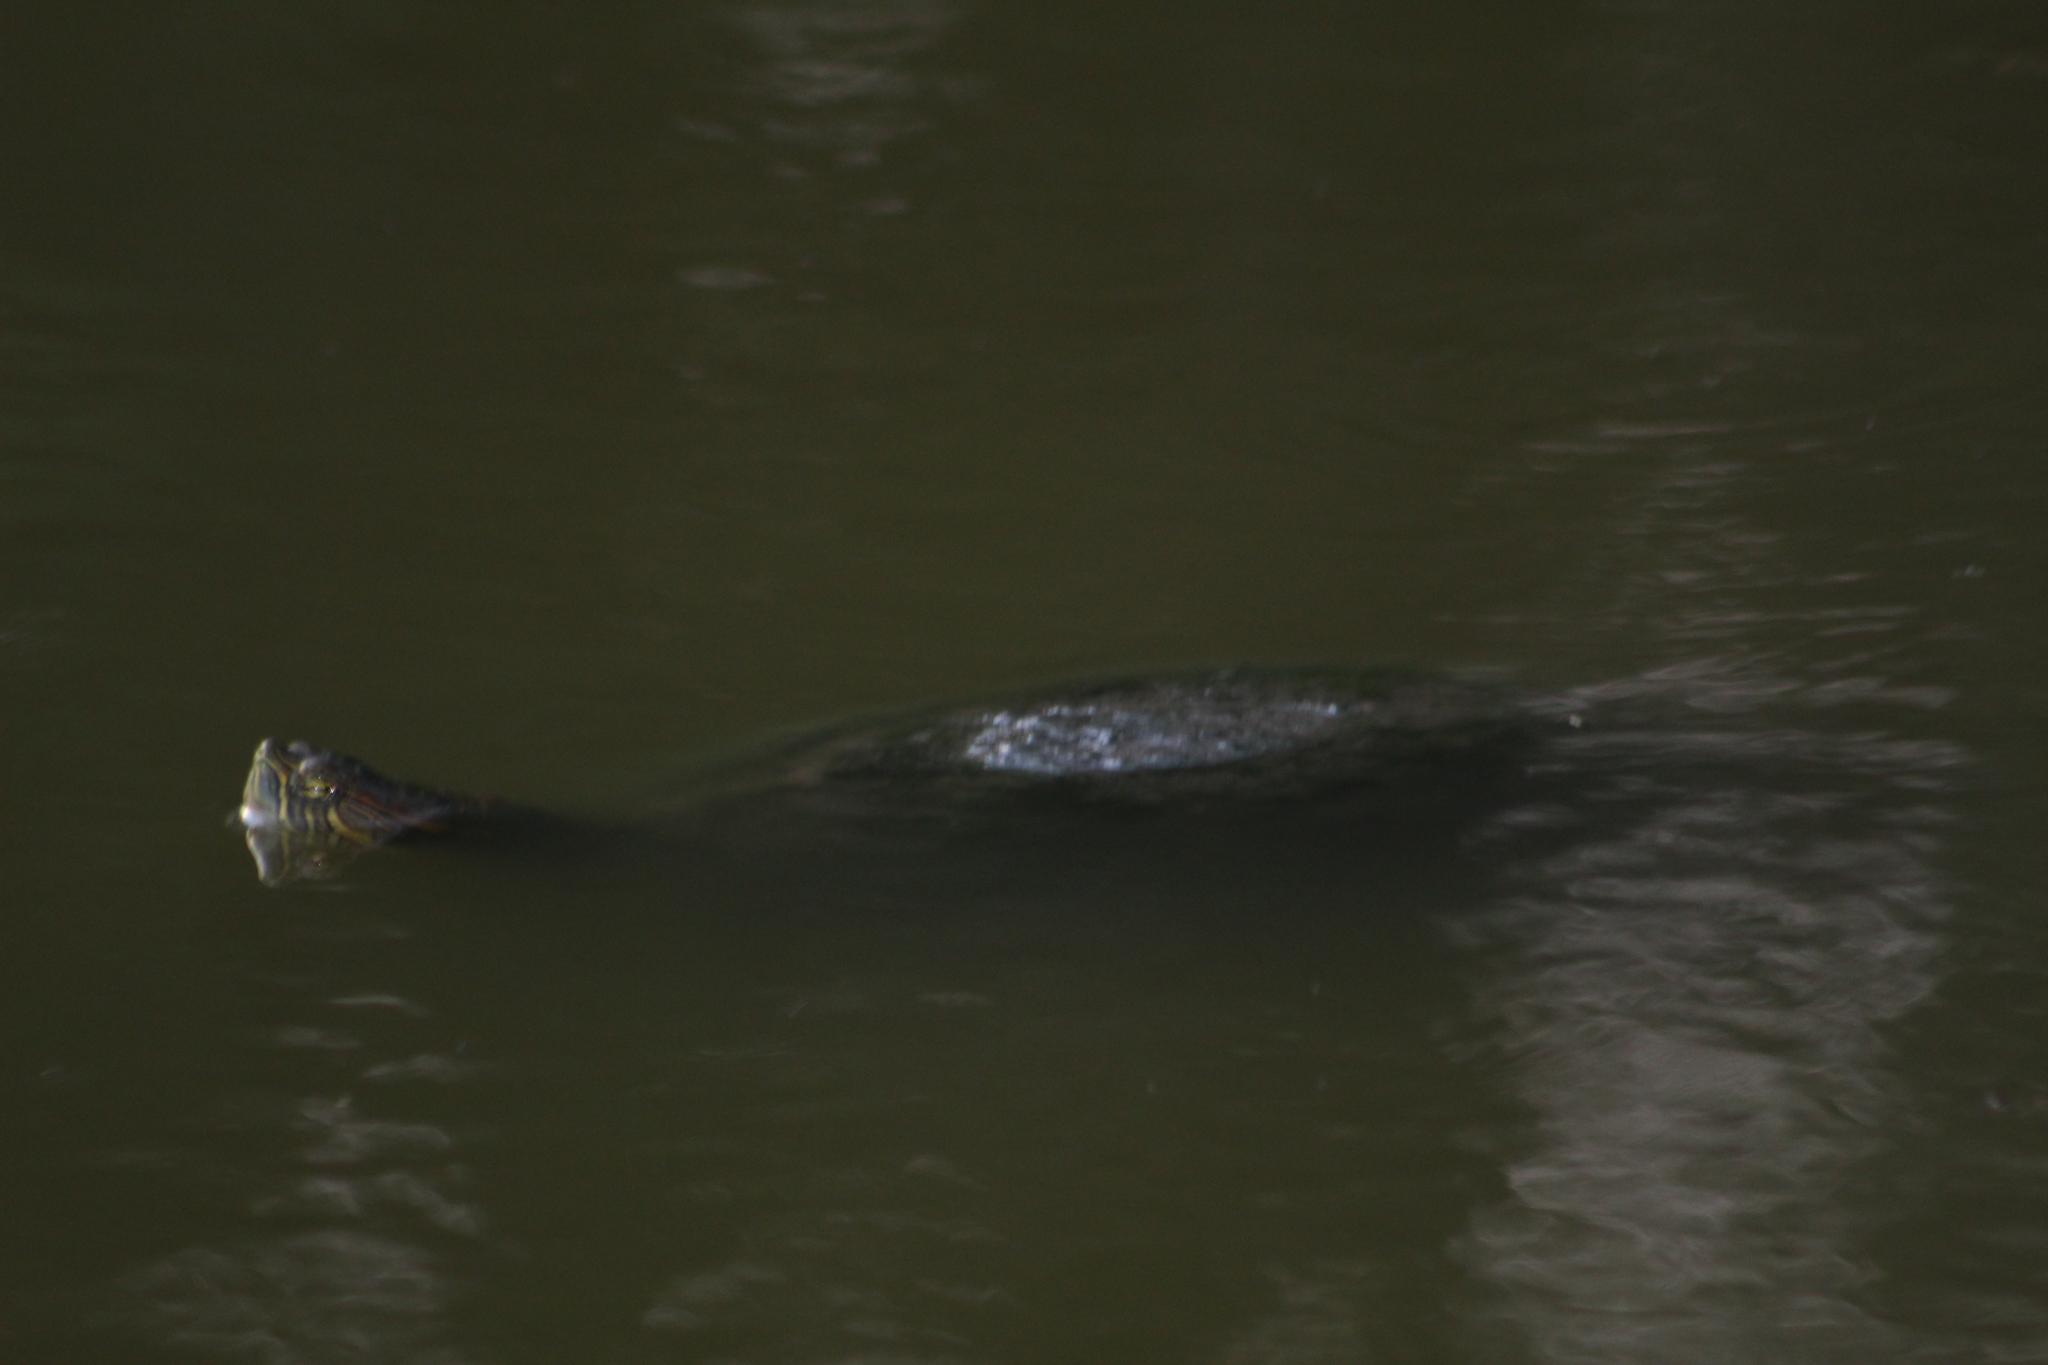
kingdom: Animalia
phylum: Chordata
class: Testudines
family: Emydidae
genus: Trachemys
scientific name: Trachemys venusta
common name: Mesoamerican slider
